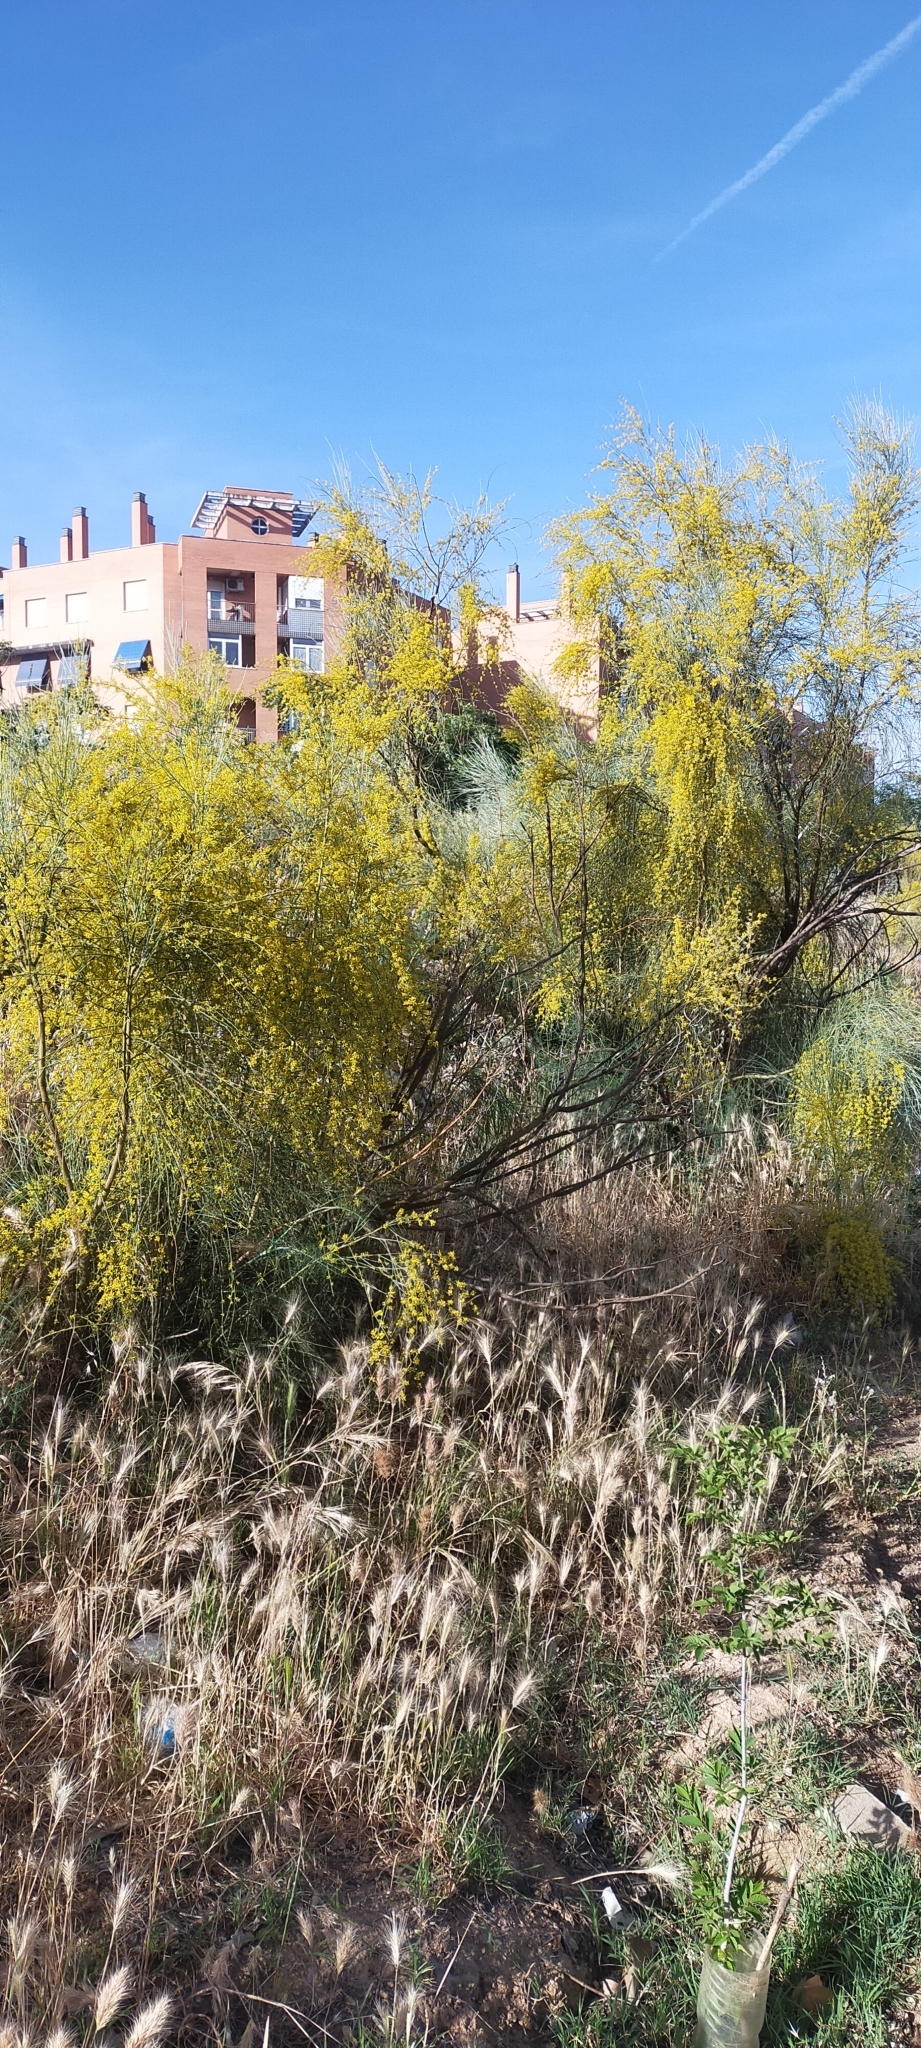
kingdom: Plantae
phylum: Tracheophyta
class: Magnoliopsida
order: Fabales
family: Fabaceae
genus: Retama
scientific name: Retama sphaerocarpa
